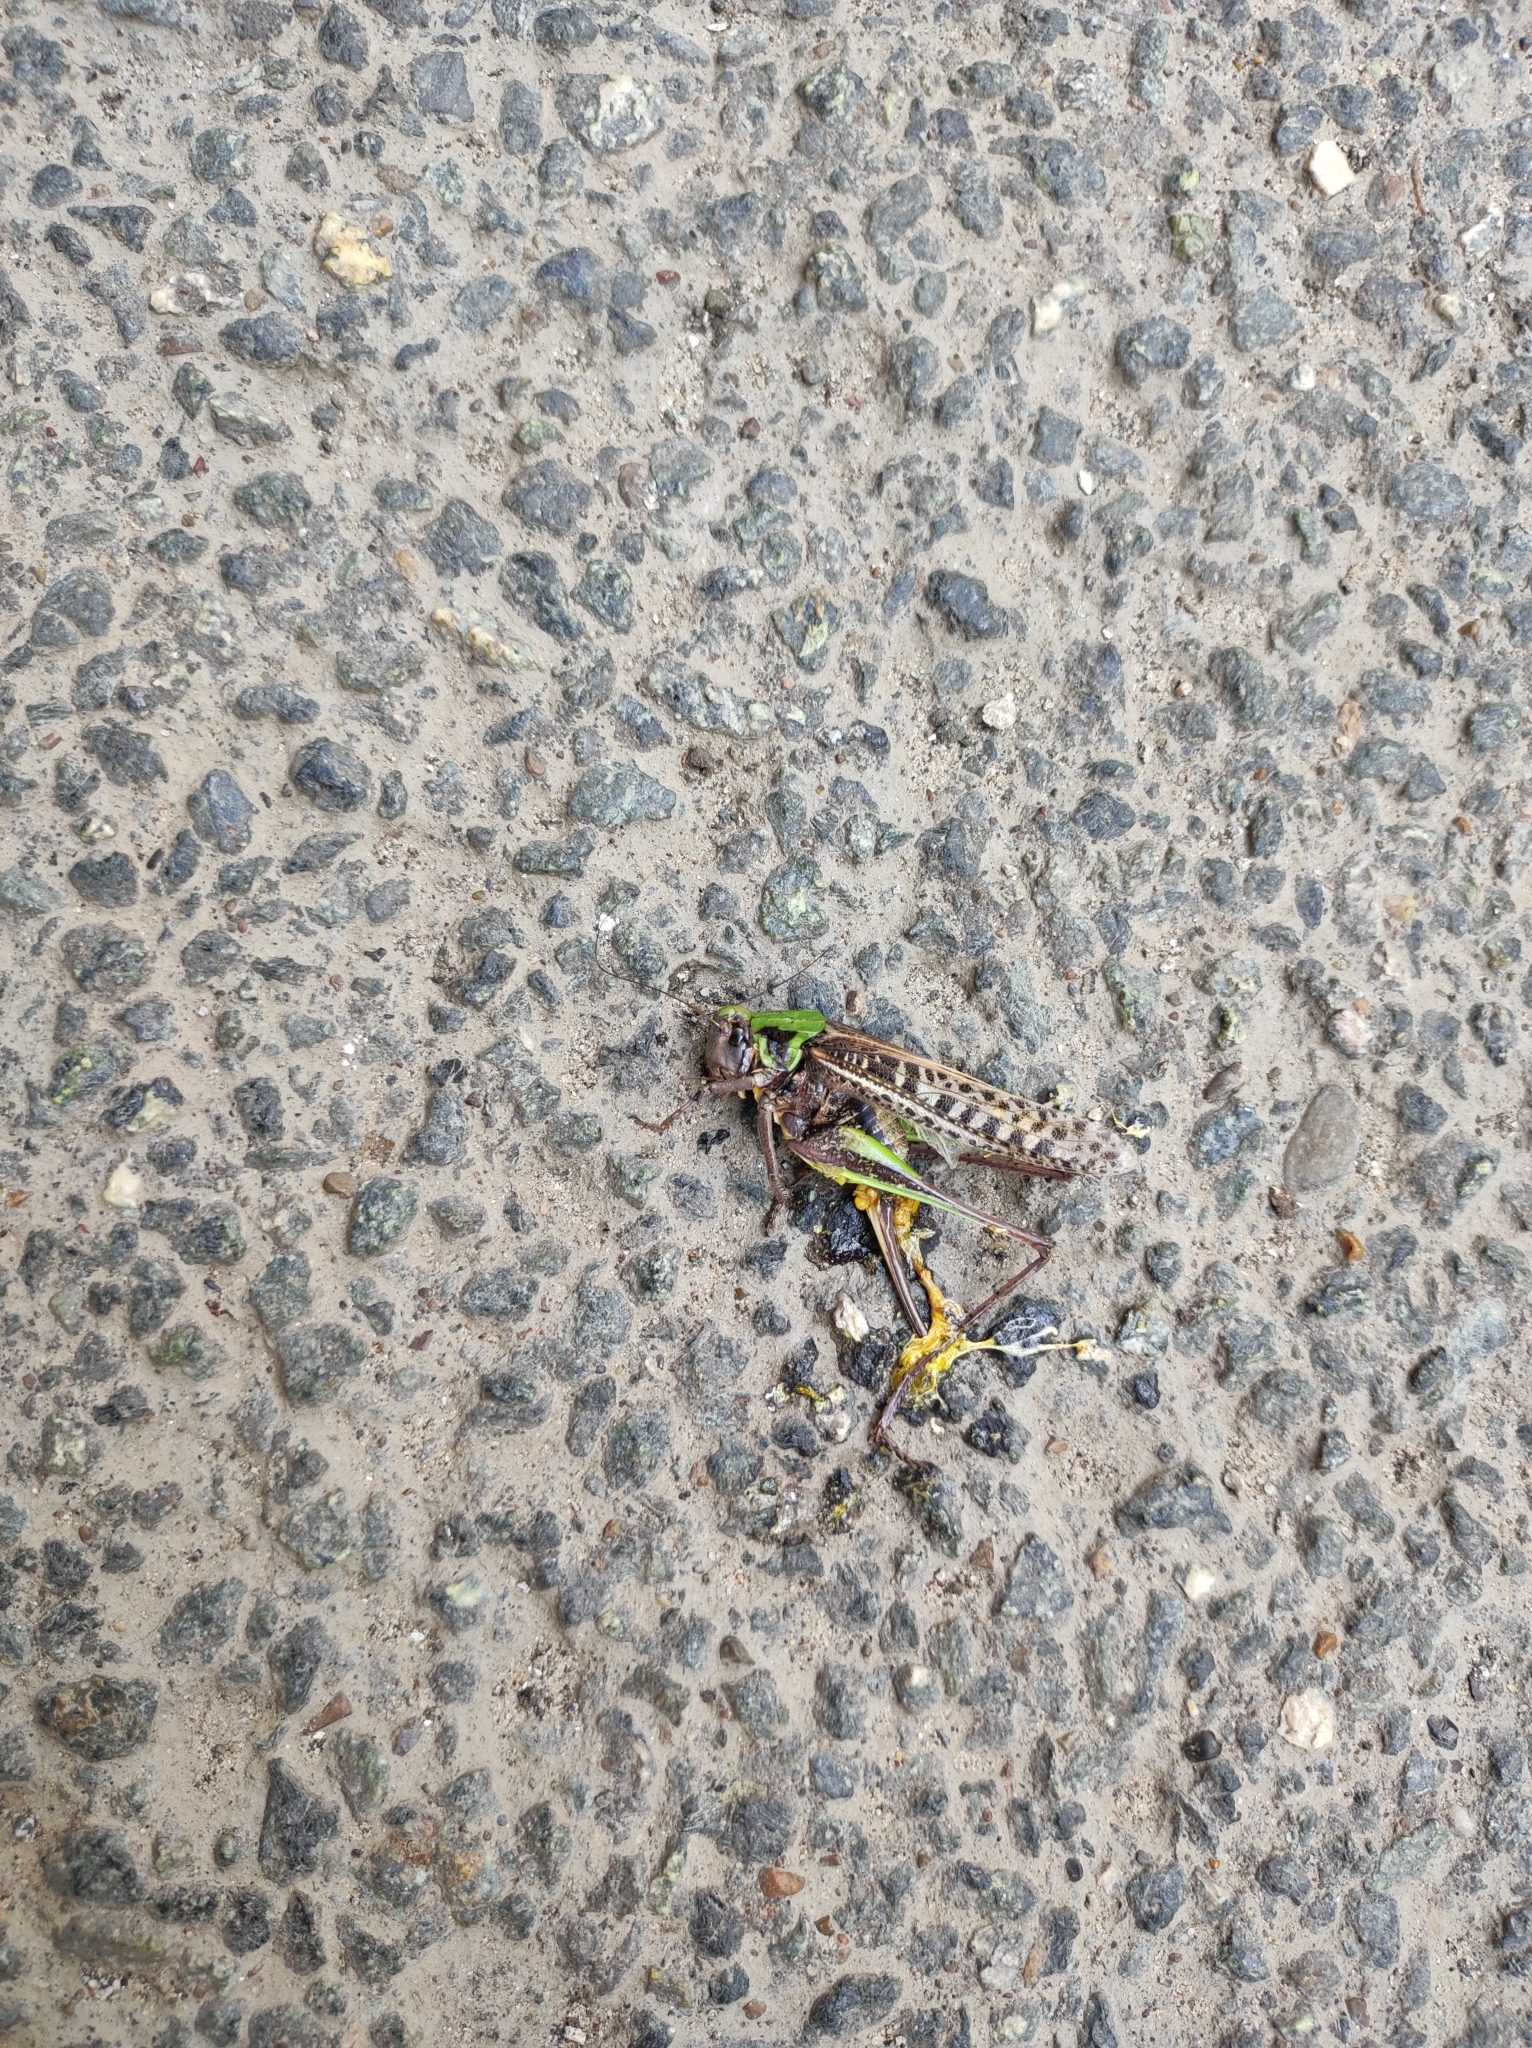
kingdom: Animalia
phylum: Arthropoda
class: Insecta
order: Orthoptera
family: Tettigoniidae
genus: Decticus
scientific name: Decticus verrucivorus
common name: Wart-biter
